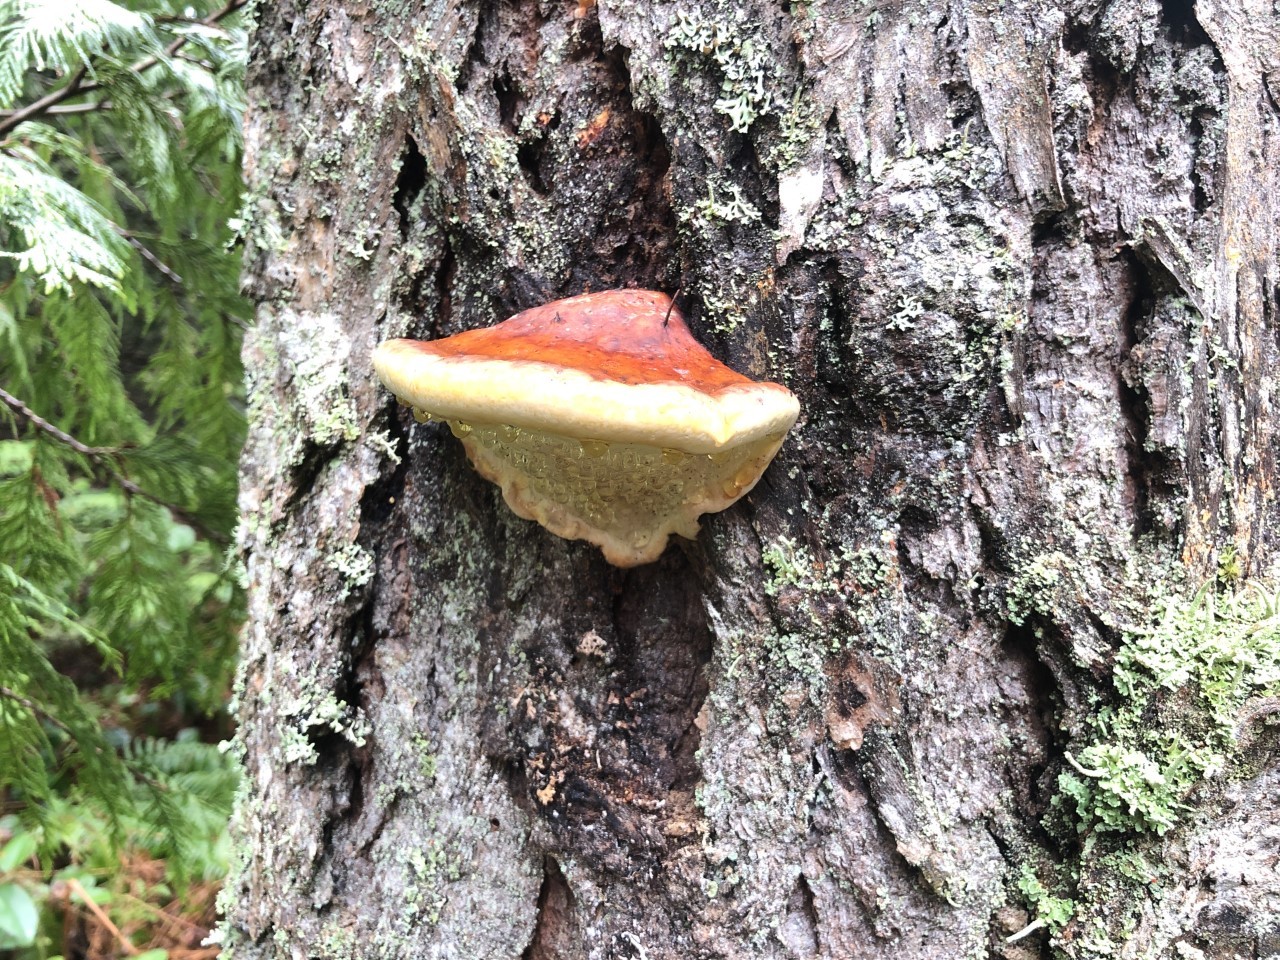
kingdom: Fungi
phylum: Basidiomycota
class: Agaricomycetes
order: Polyporales
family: Fomitopsidaceae
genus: Fomitopsis
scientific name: Fomitopsis mounceae
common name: Northern red belt
